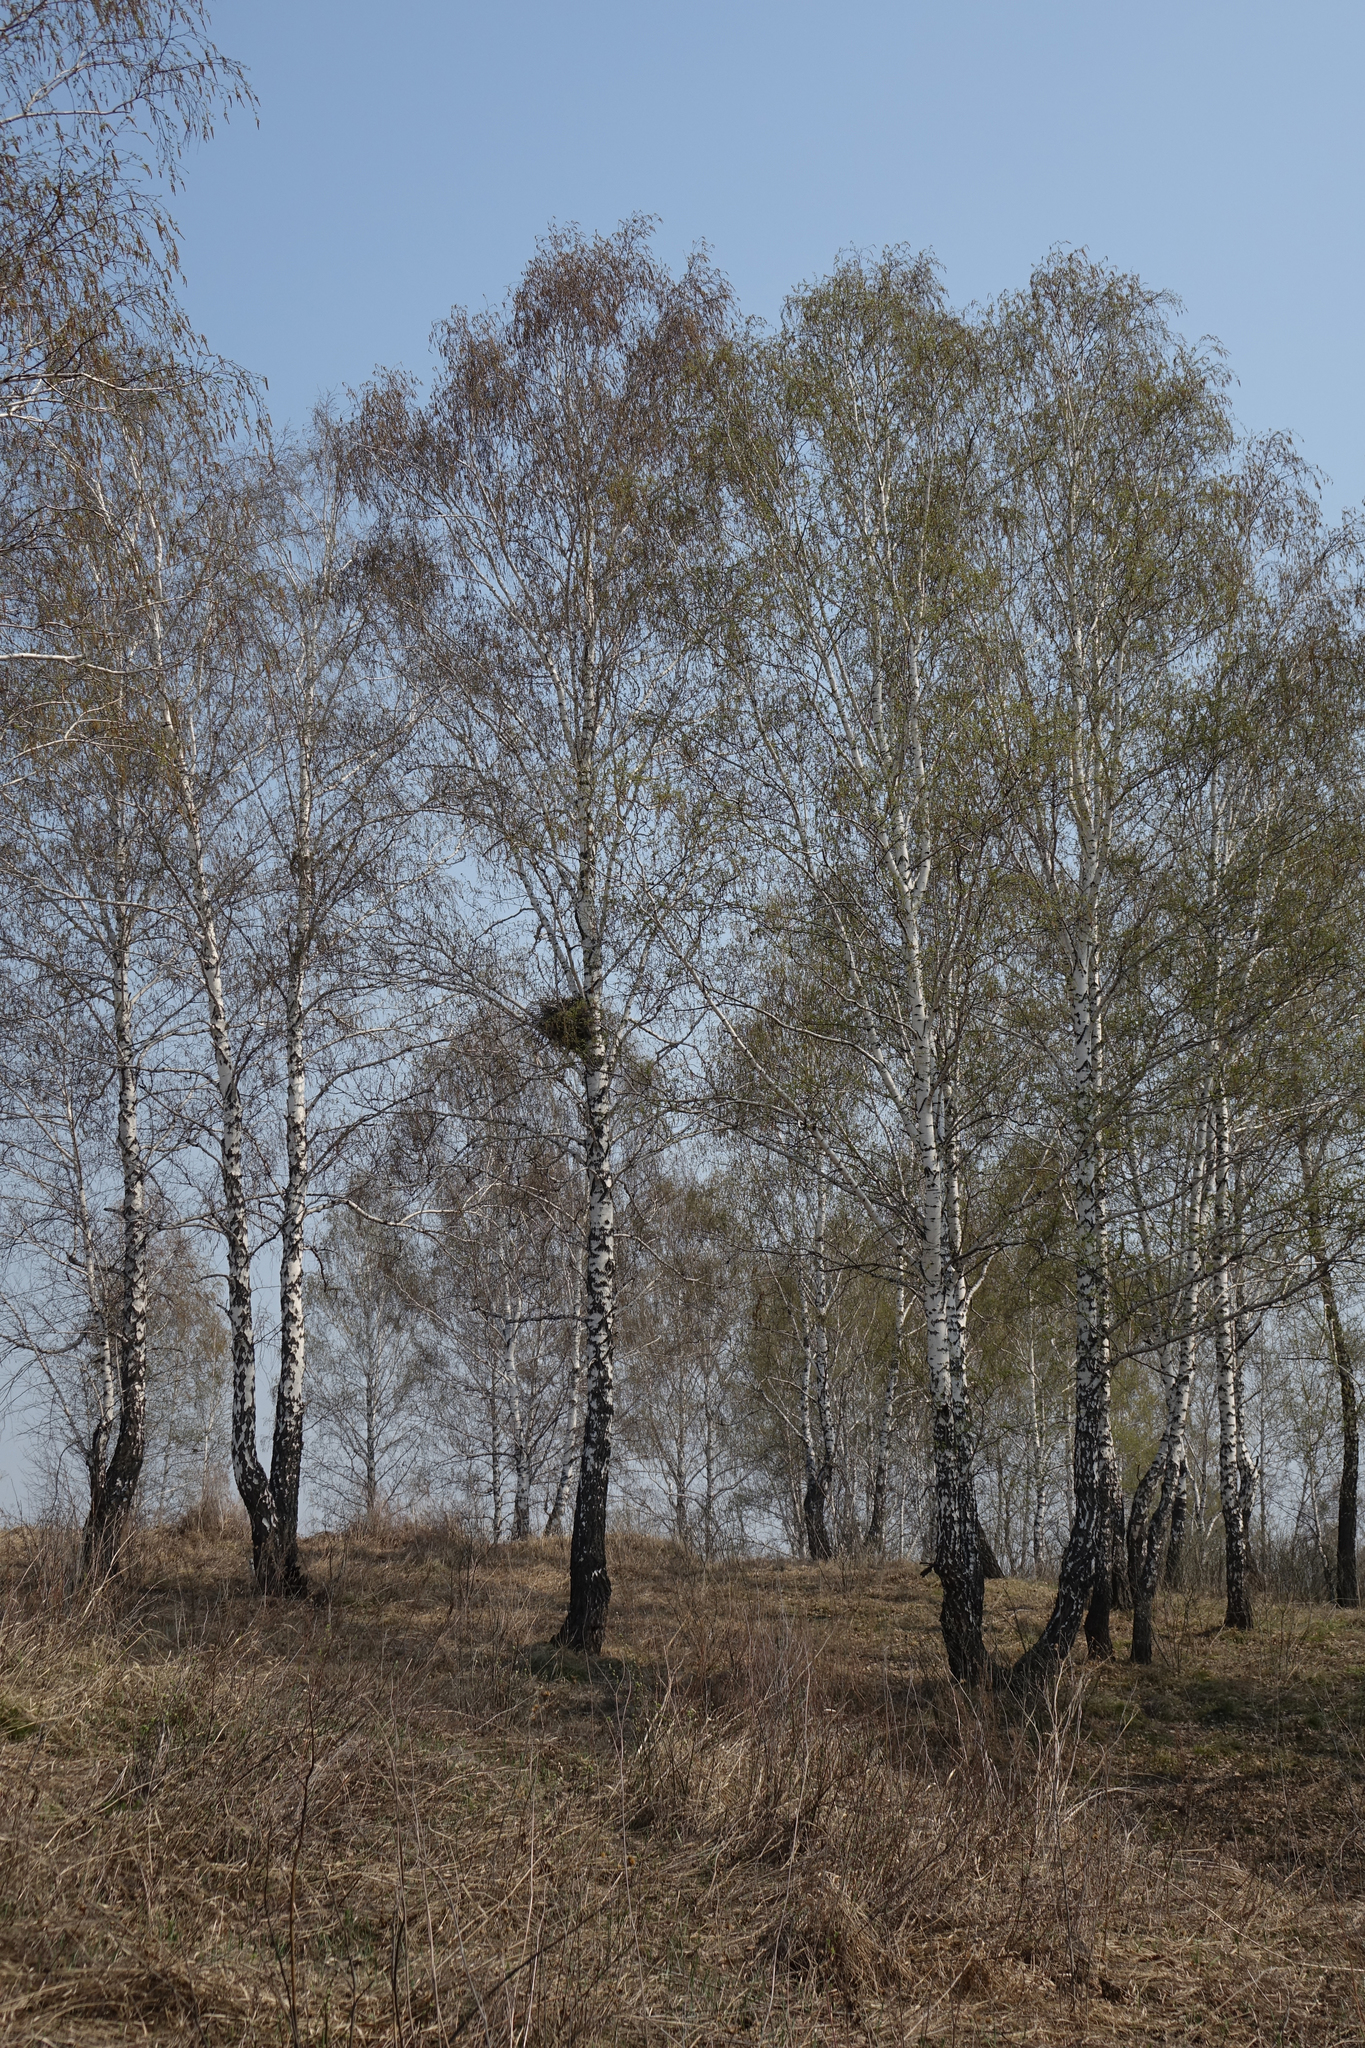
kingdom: Plantae
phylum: Tracheophyta
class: Magnoliopsida
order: Fagales
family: Betulaceae
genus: Betula
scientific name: Betula pendula
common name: Silver birch
